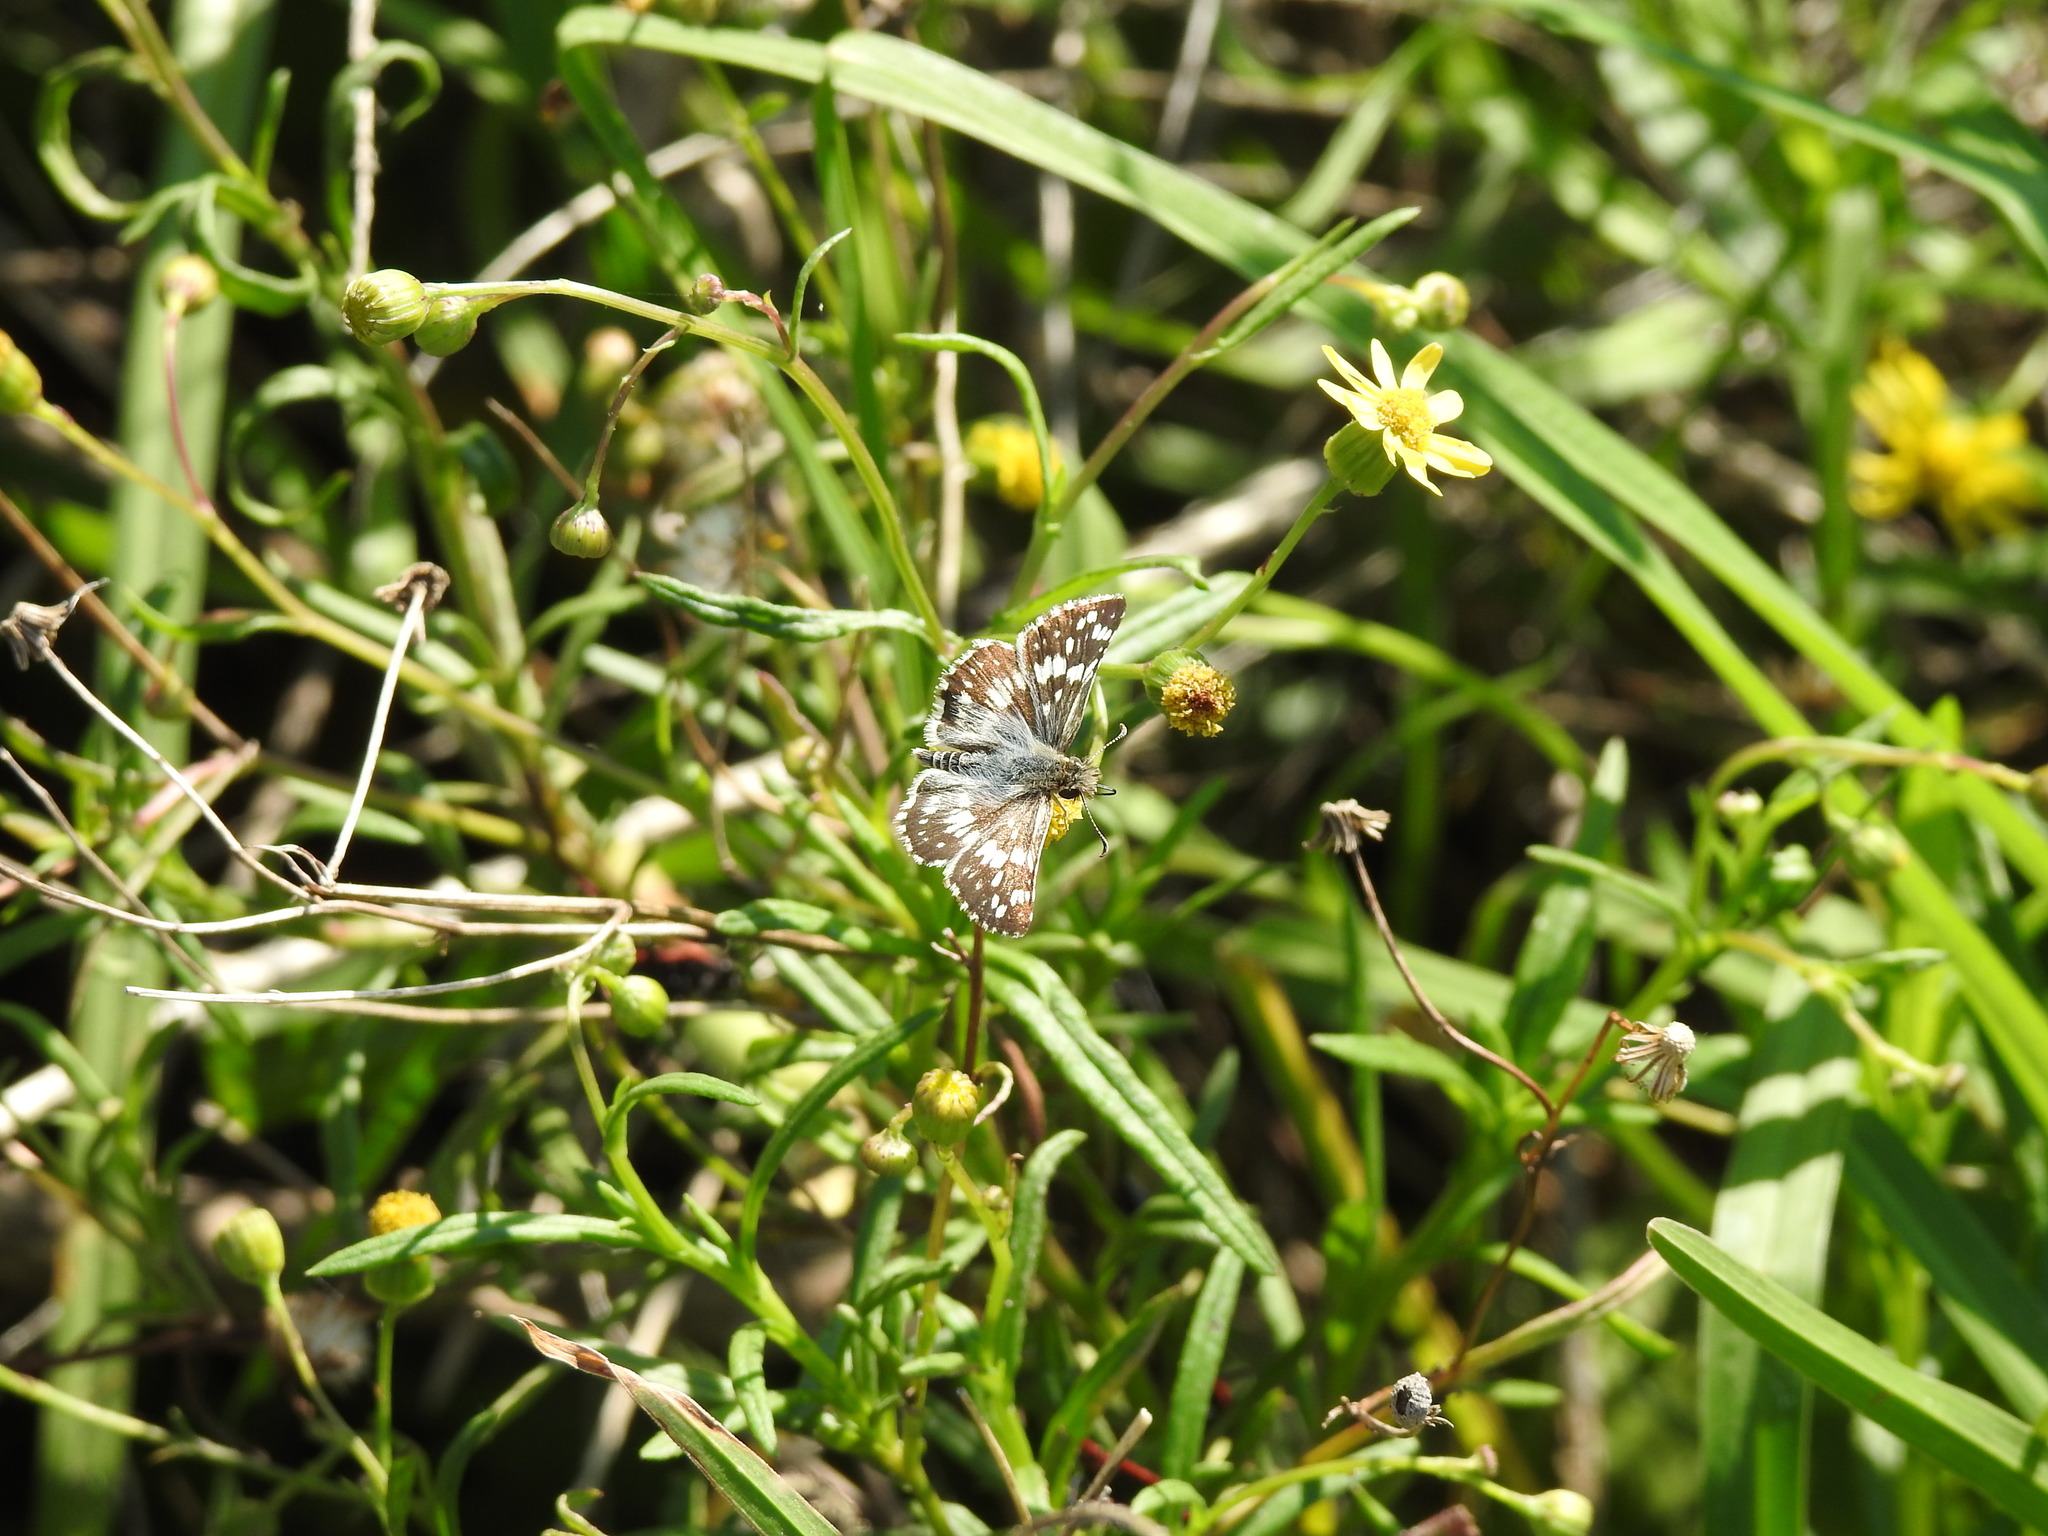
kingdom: Animalia
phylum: Arthropoda
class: Insecta
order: Lepidoptera
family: Hesperiidae
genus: Burnsius
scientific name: Burnsius orcynoides
